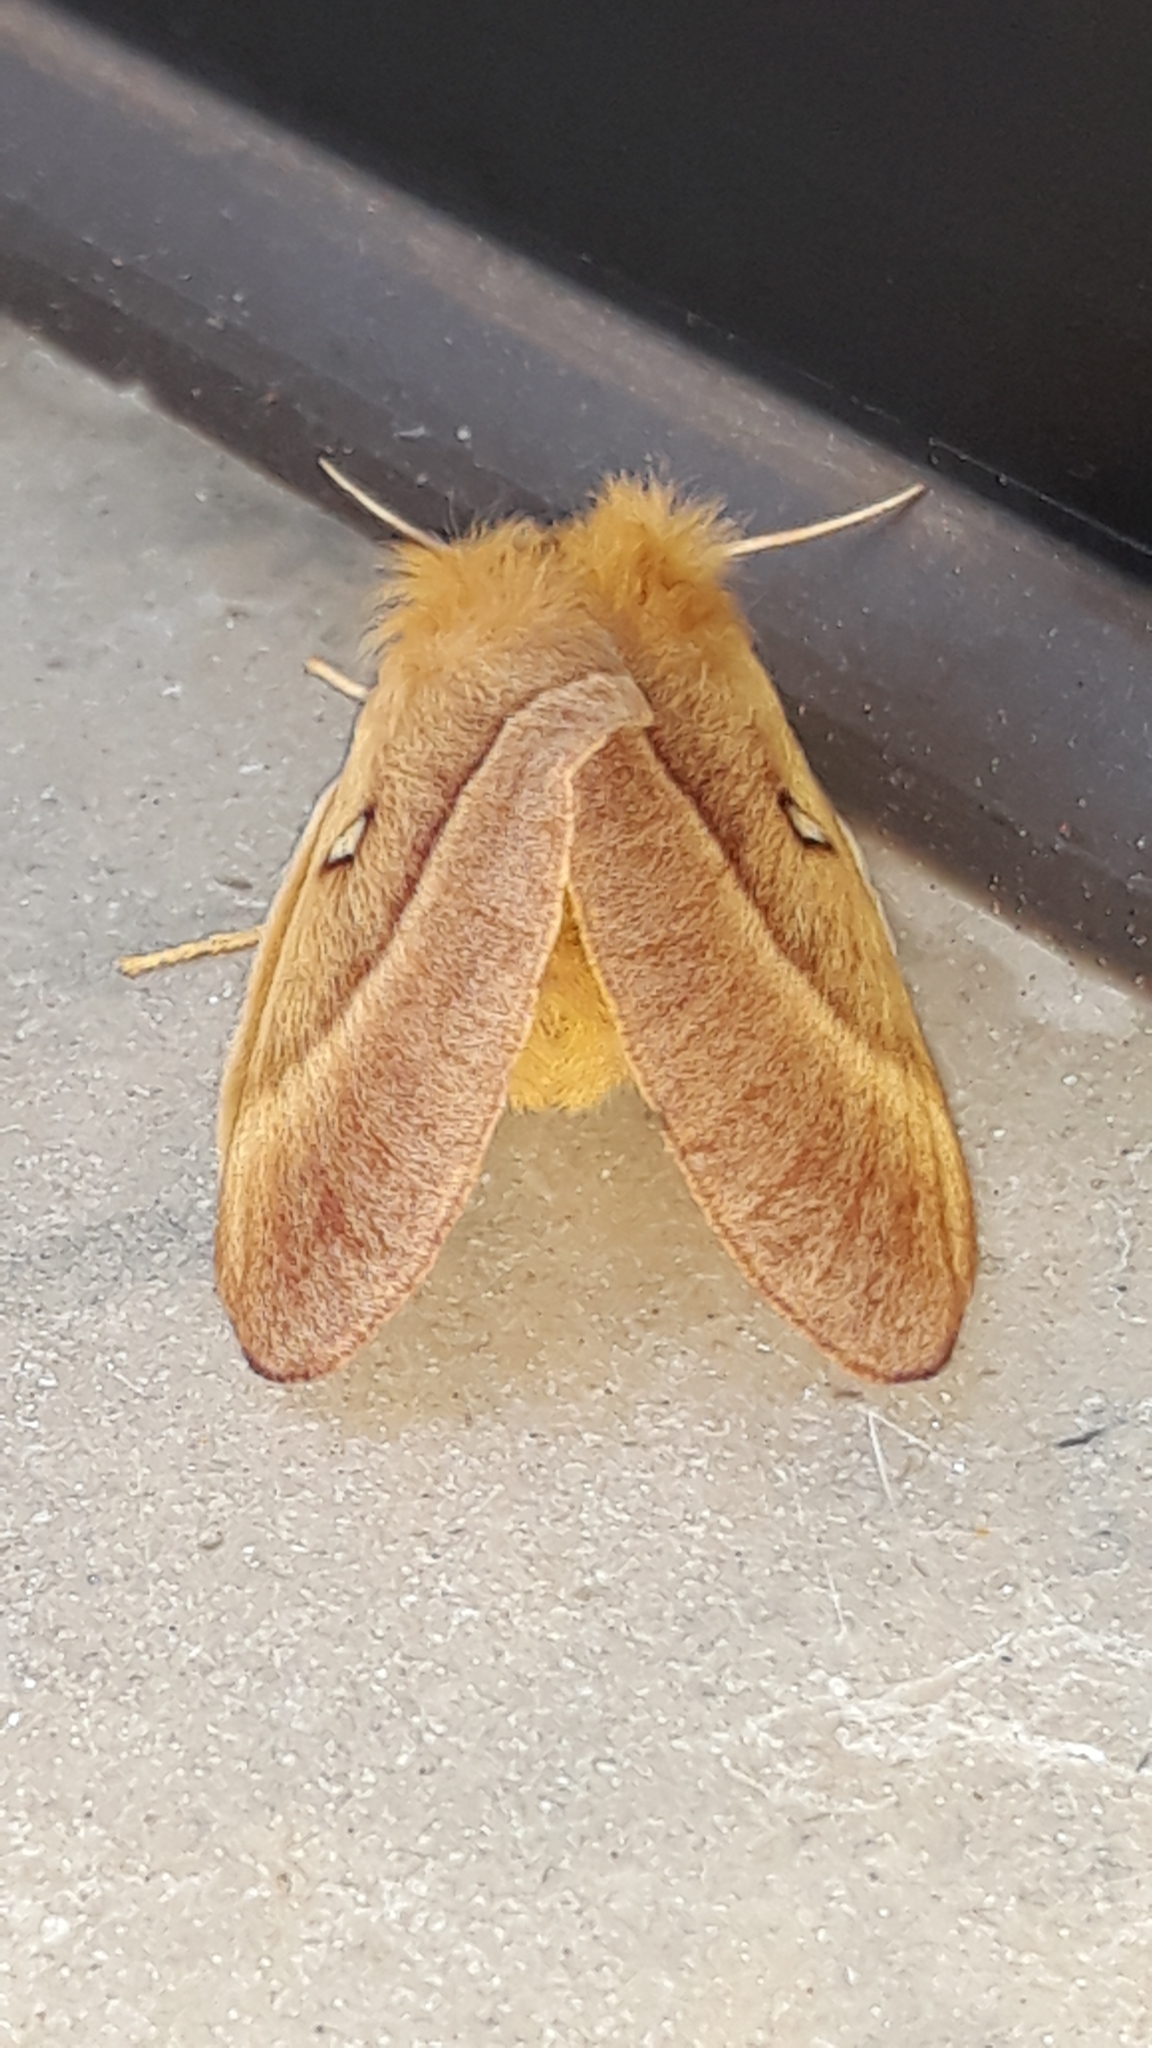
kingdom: Animalia
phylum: Arthropoda
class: Insecta
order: Lepidoptera
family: Lasiocampidae
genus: Lasiocampa
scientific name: Lasiocampa quercus
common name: Oak eggar
